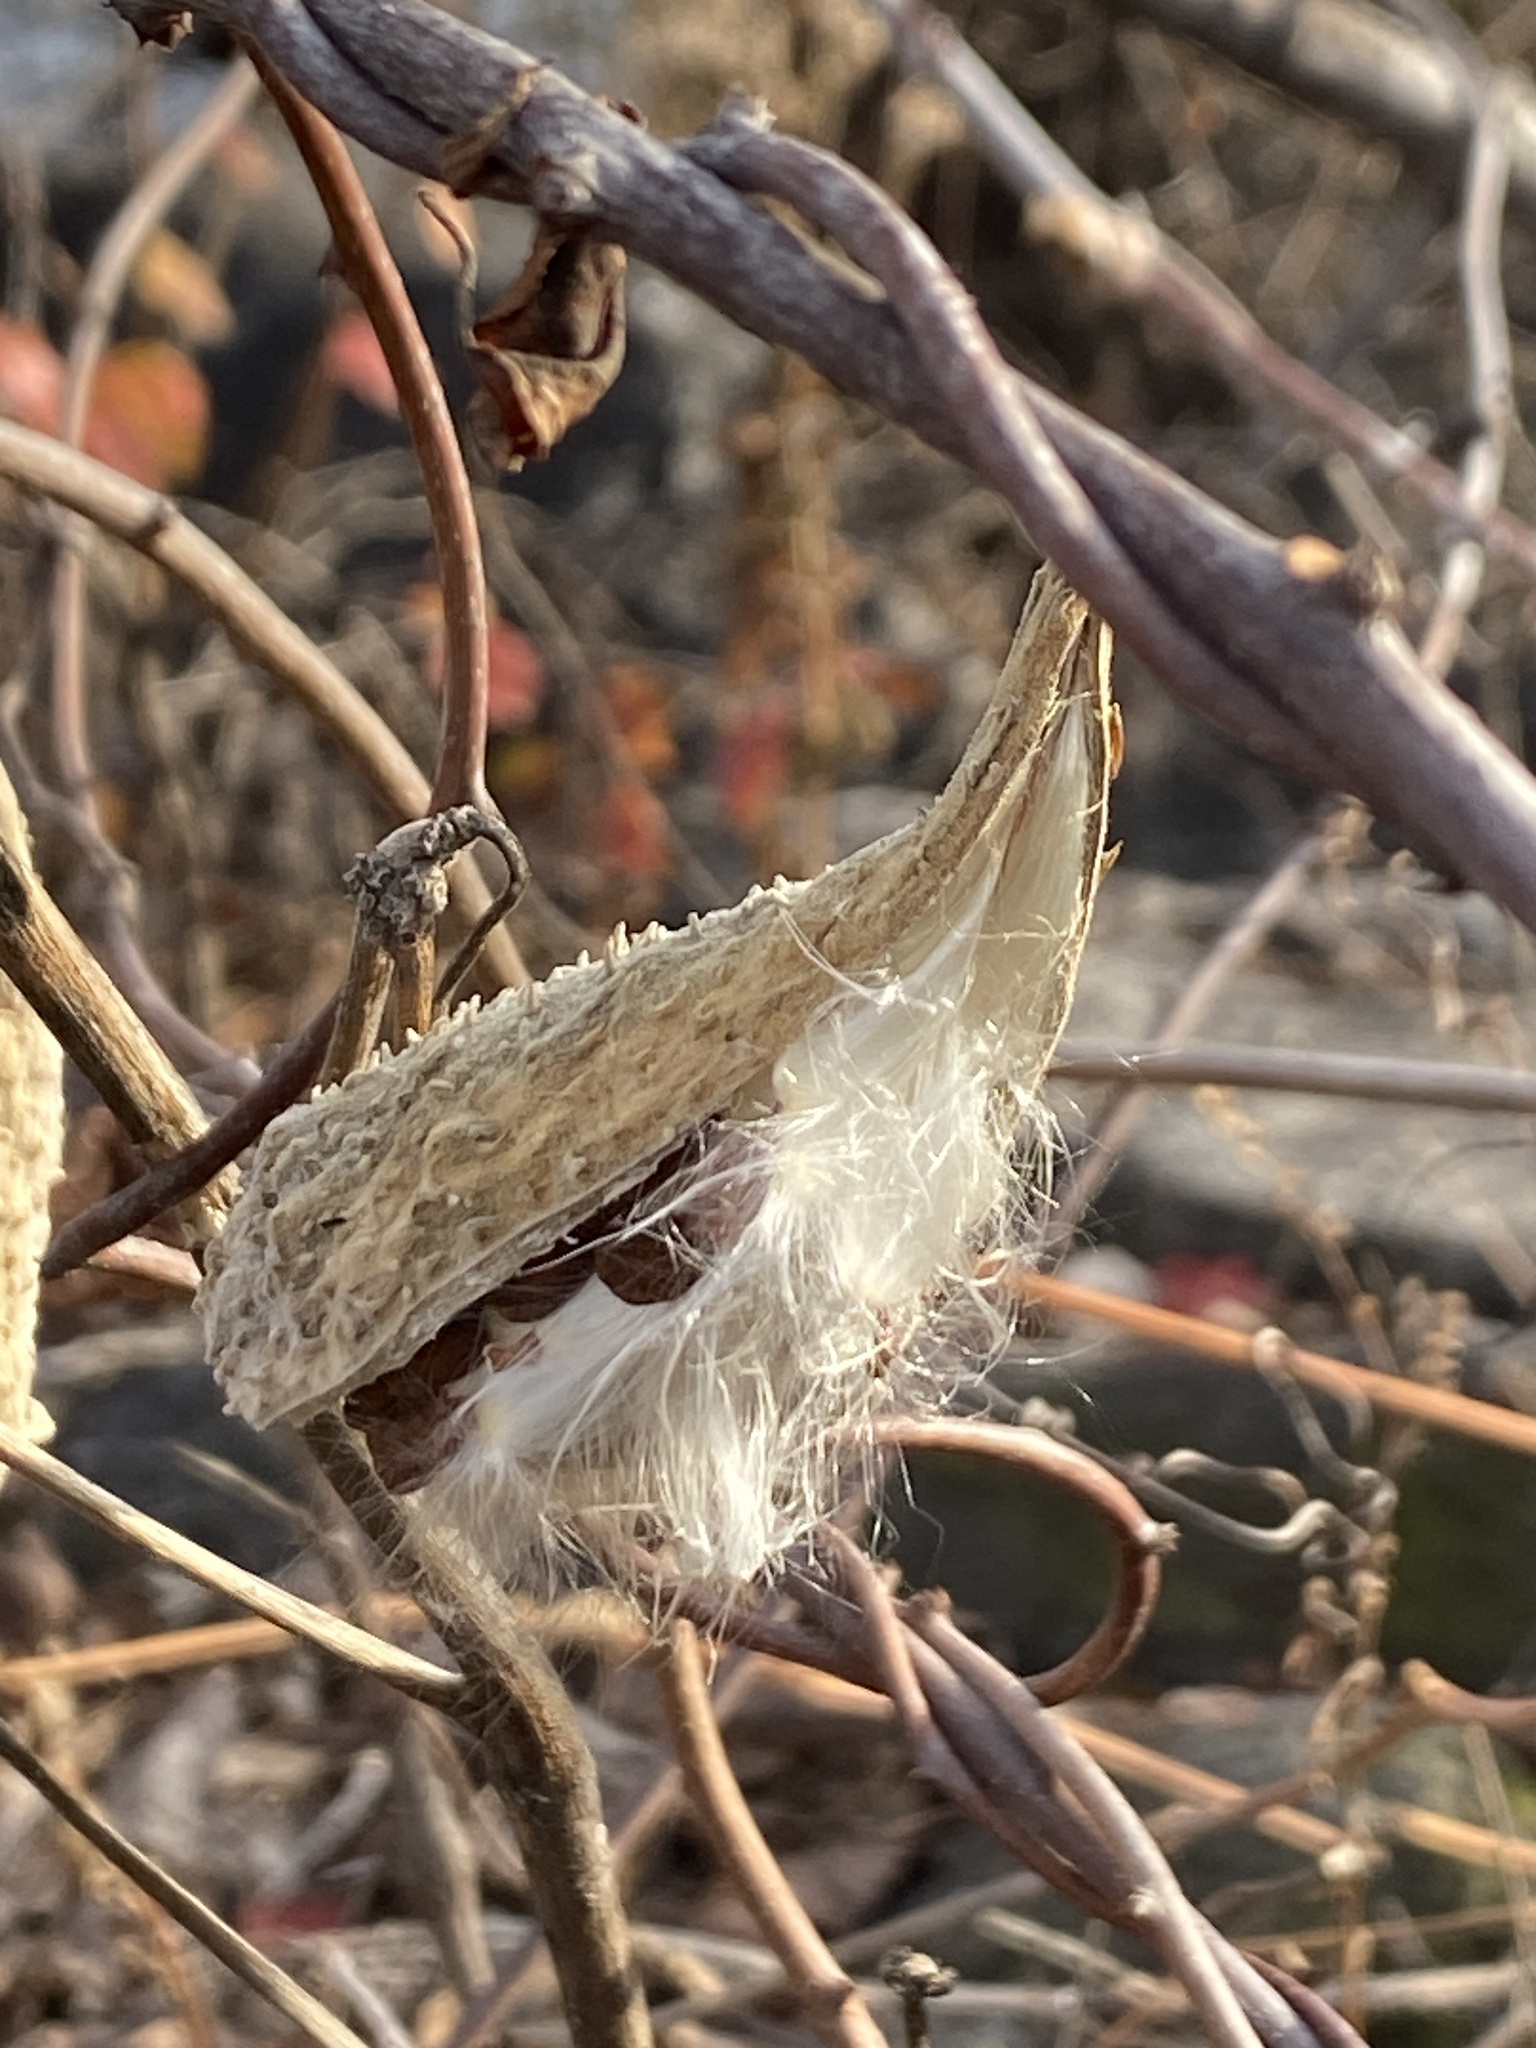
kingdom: Plantae
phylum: Tracheophyta
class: Magnoliopsida
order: Gentianales
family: Apocynaceae
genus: Asclepias
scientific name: Asclepias syriaca
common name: Common milkweed
